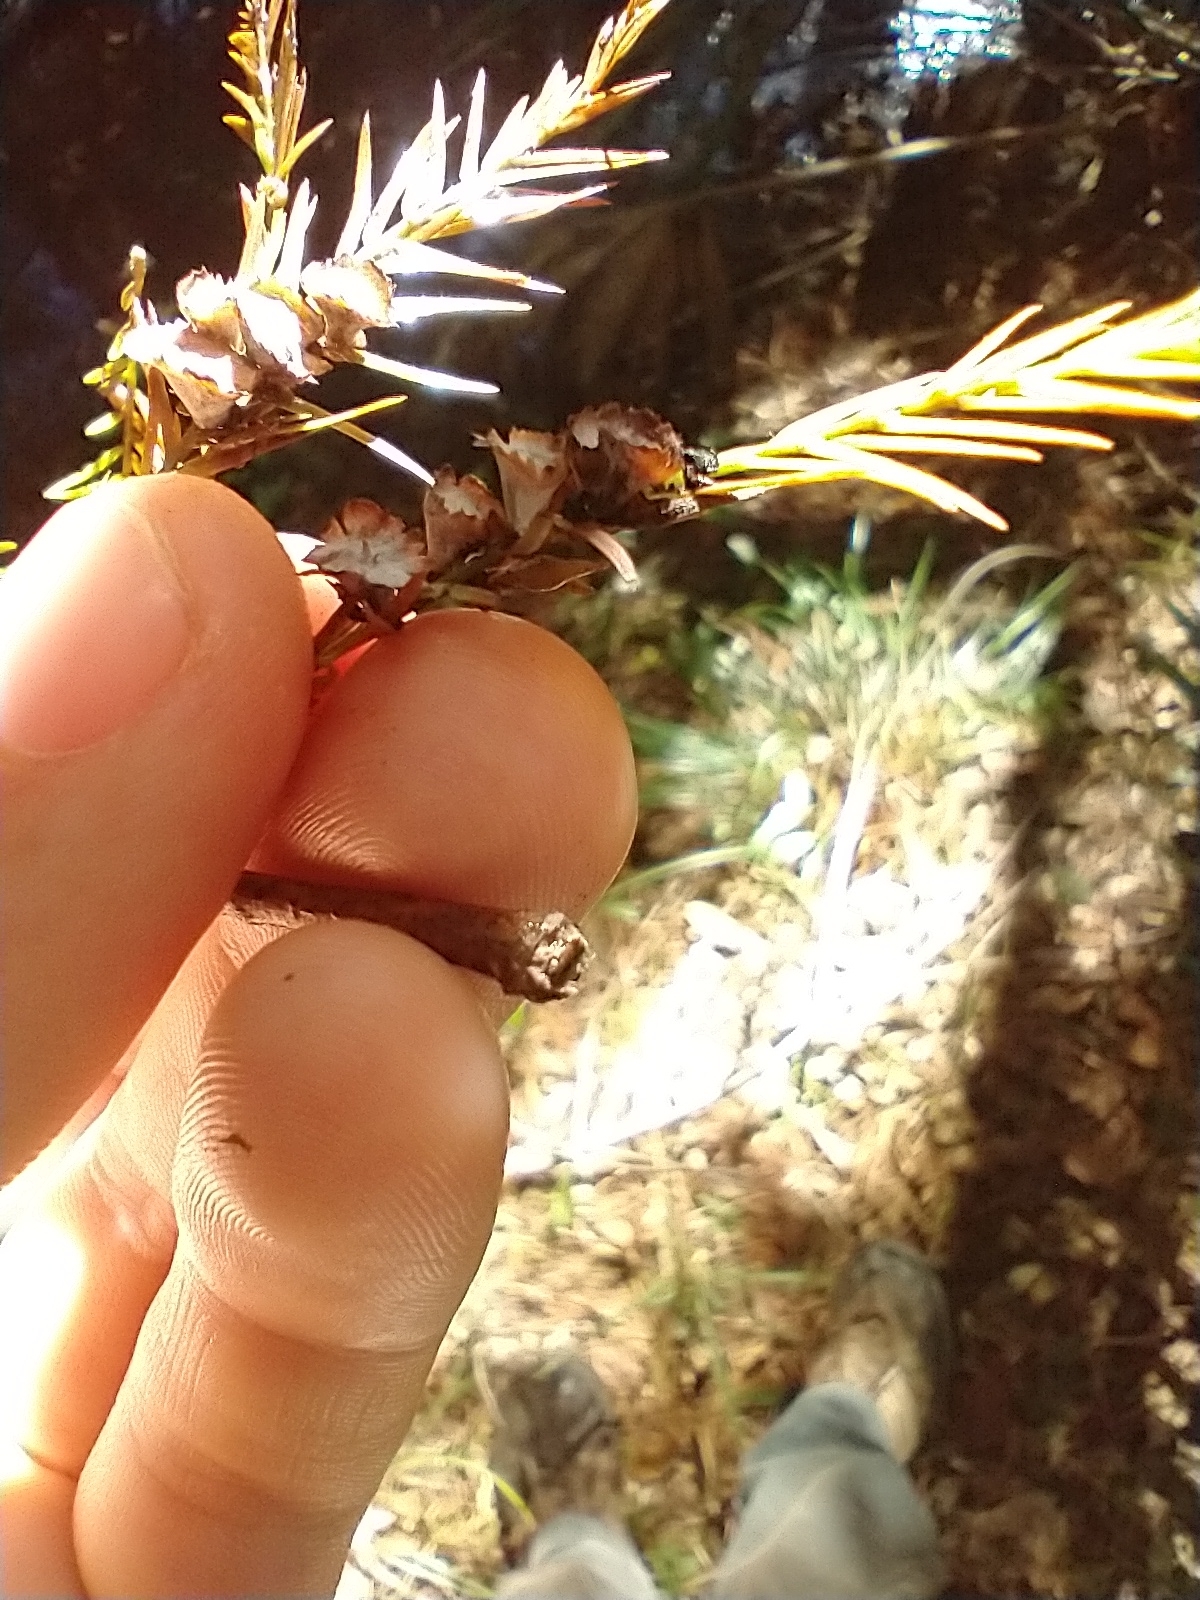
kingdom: Animalia
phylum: Arthropoda
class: Insecta
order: Diptera
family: Cecidomyiidae
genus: Taxodiomyia
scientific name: Taxodiomyia cupressi
